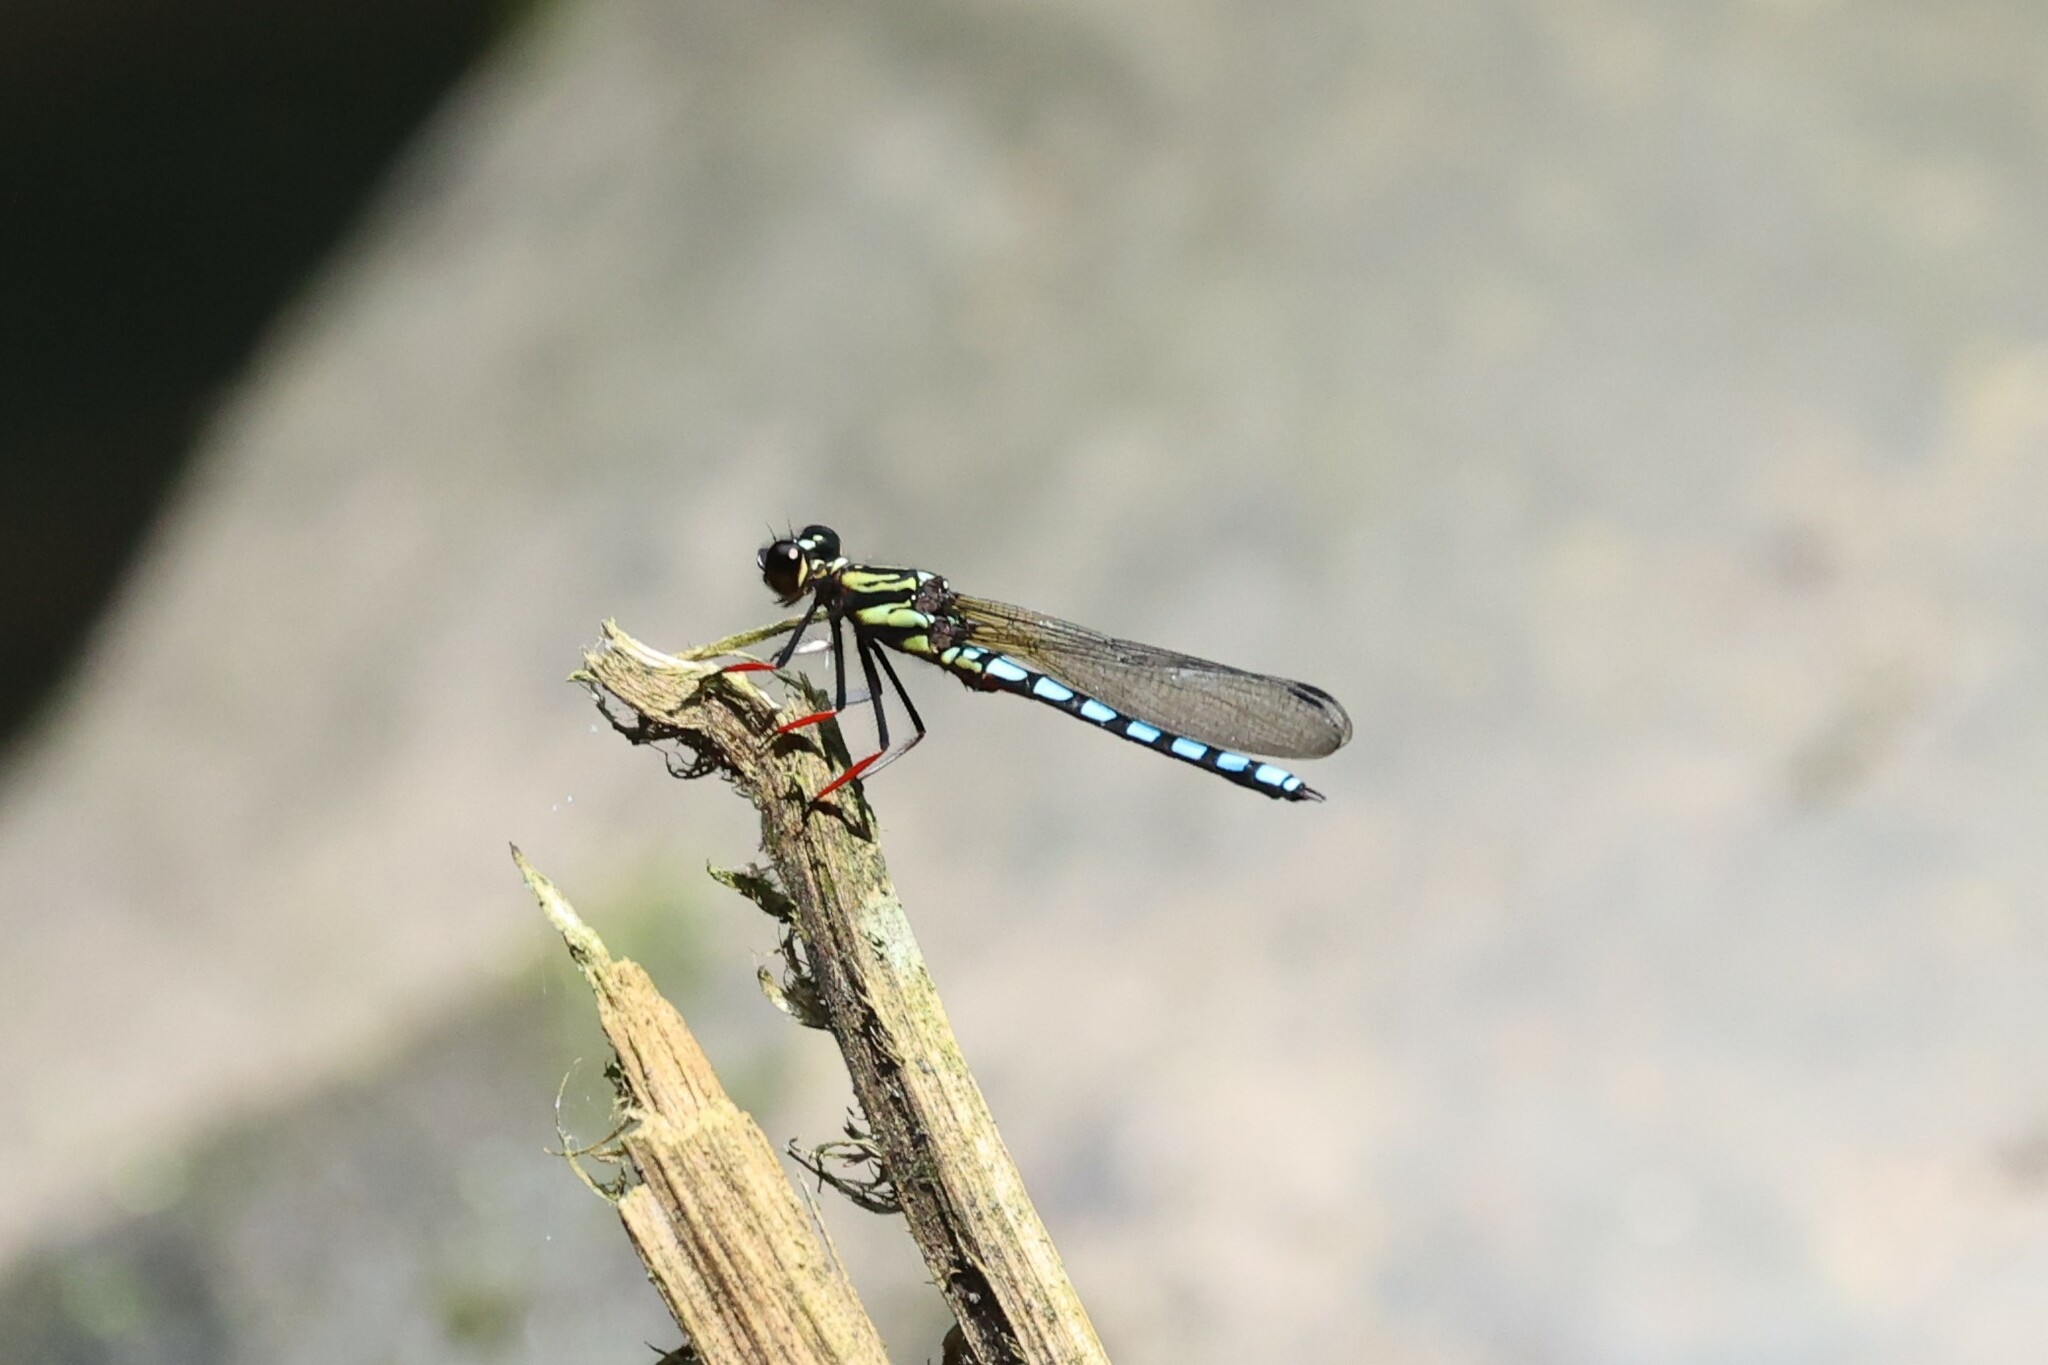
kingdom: Animalia
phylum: Arthropoda
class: Insecta
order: Odonata
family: Chlorocyphidae
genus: Platycypha
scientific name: Platycypha lacustris
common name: Forest jewel
